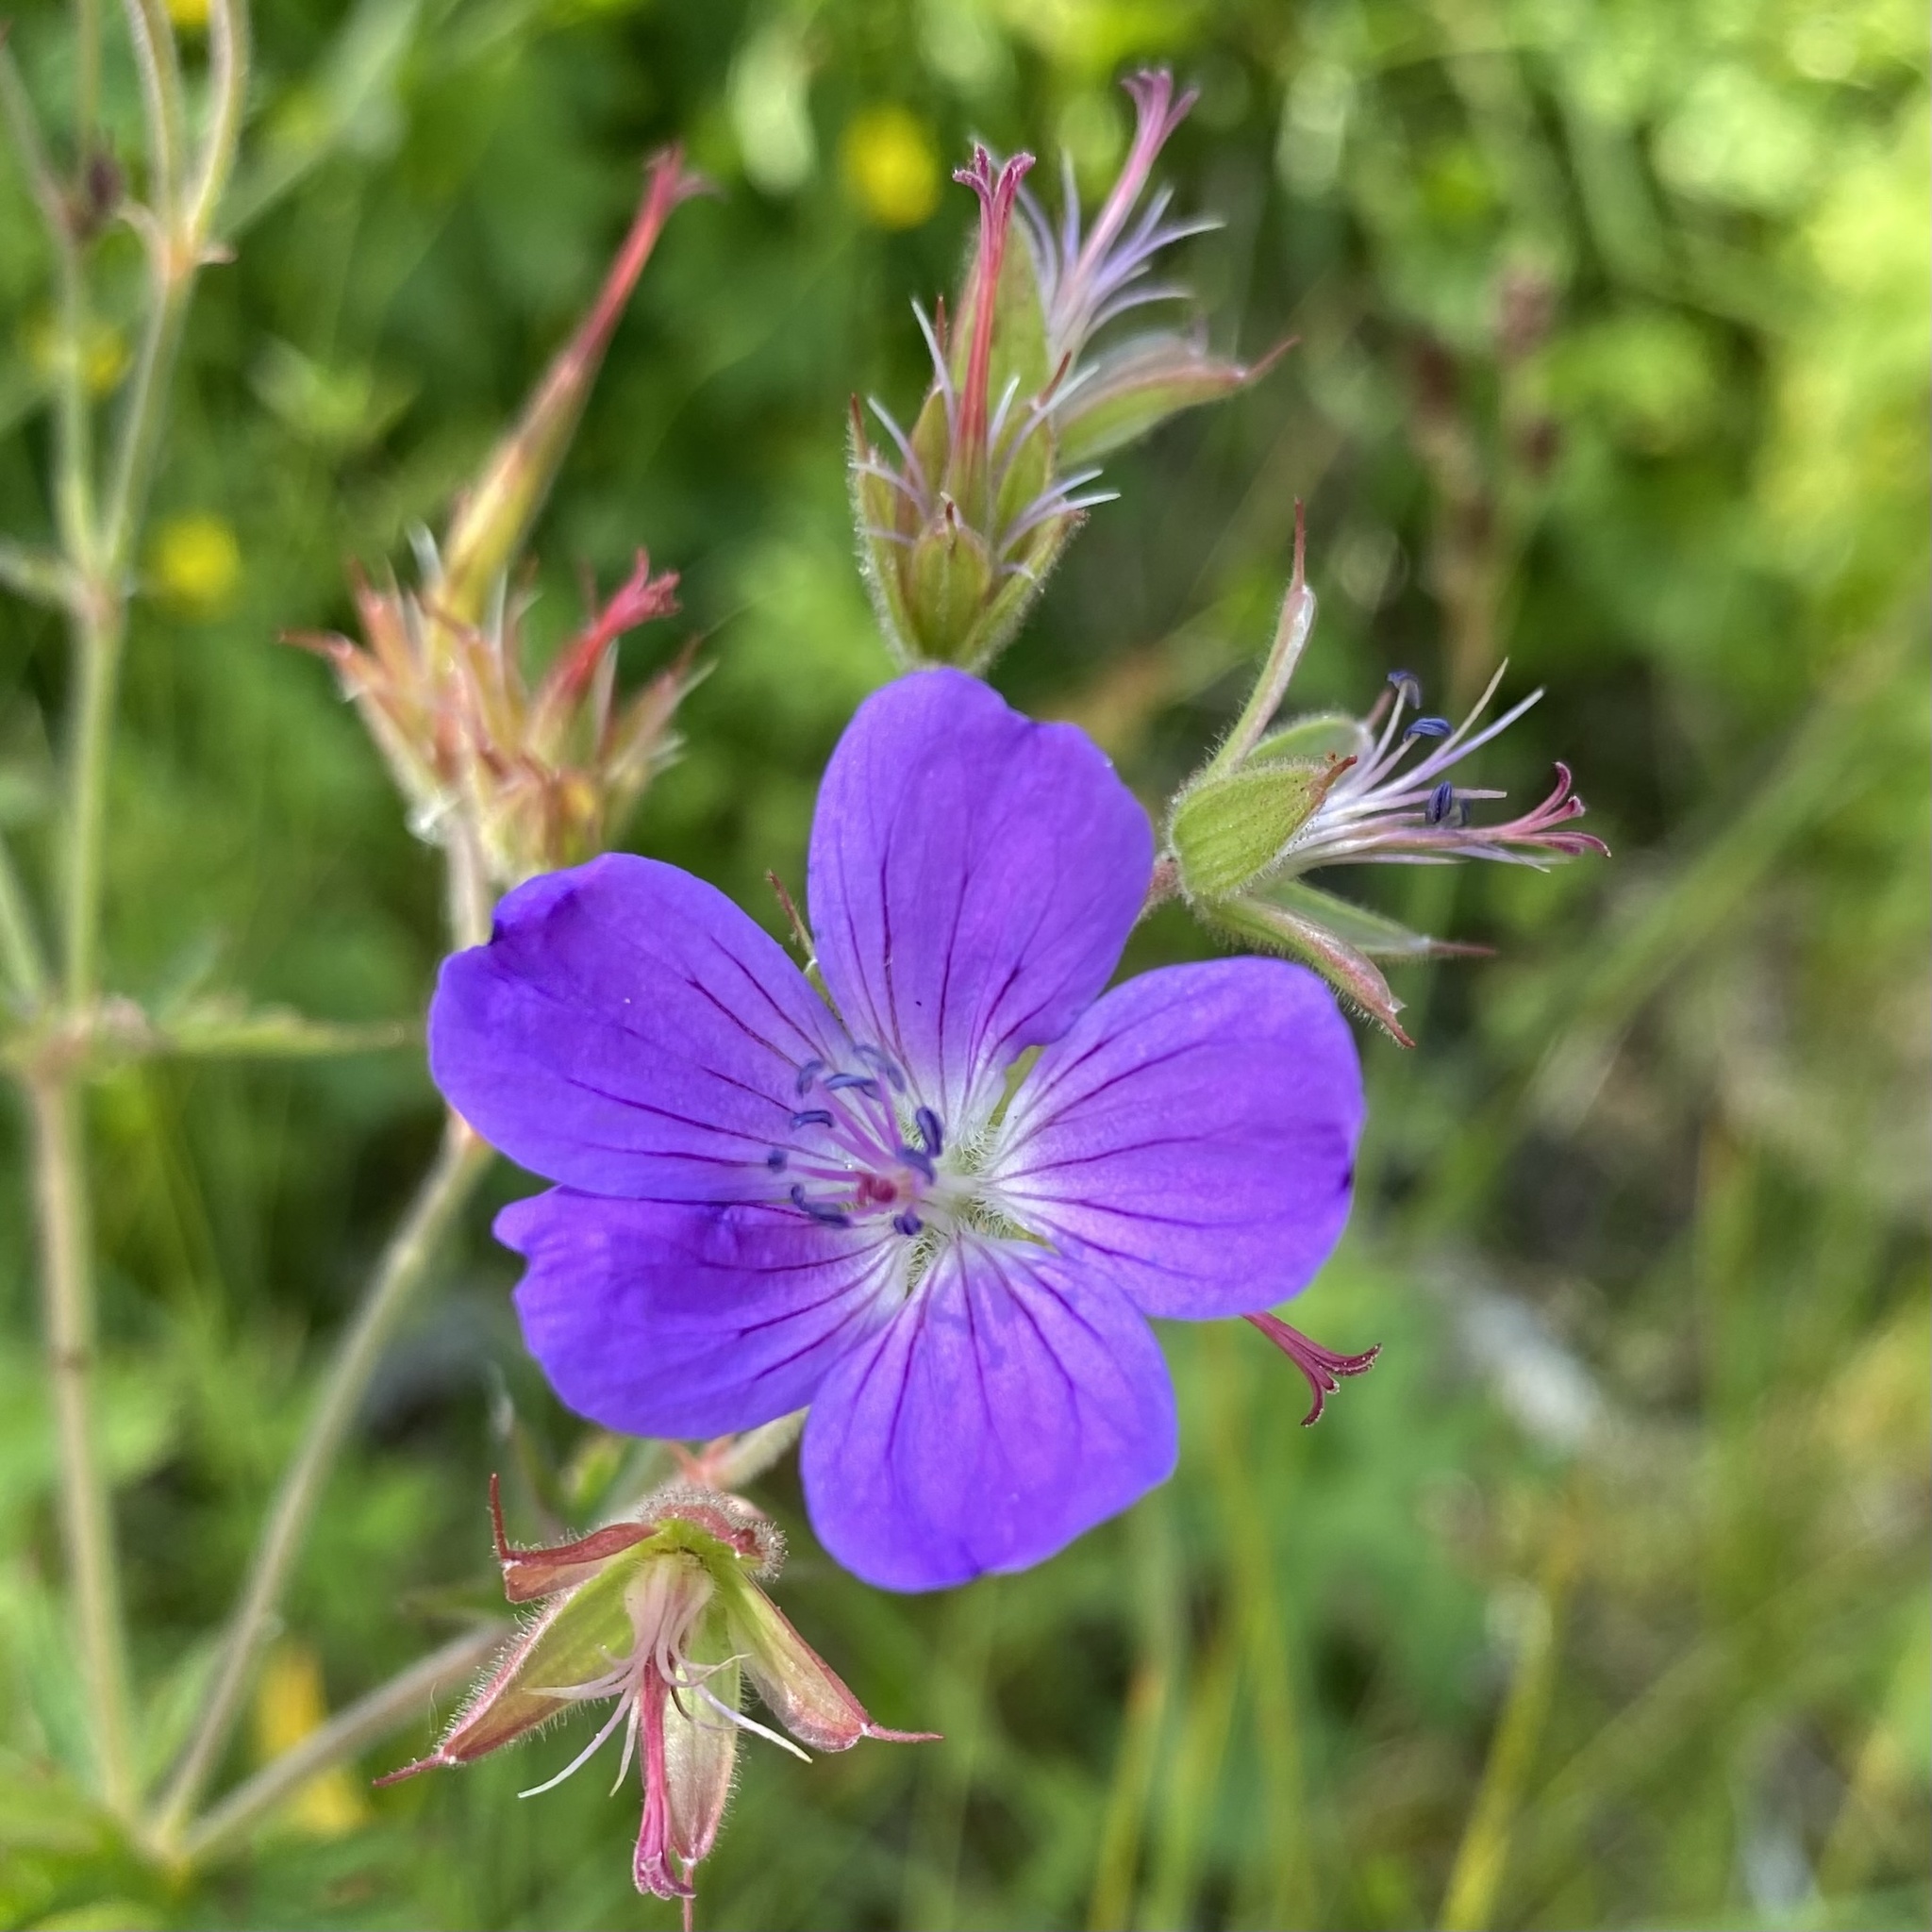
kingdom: Plantae
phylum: Tracheophyta
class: Magnoliopsida
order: Geraniales
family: Geraniaceae
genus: Geranium
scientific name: Geranium sylvaticum
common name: Wood crane's-bill
